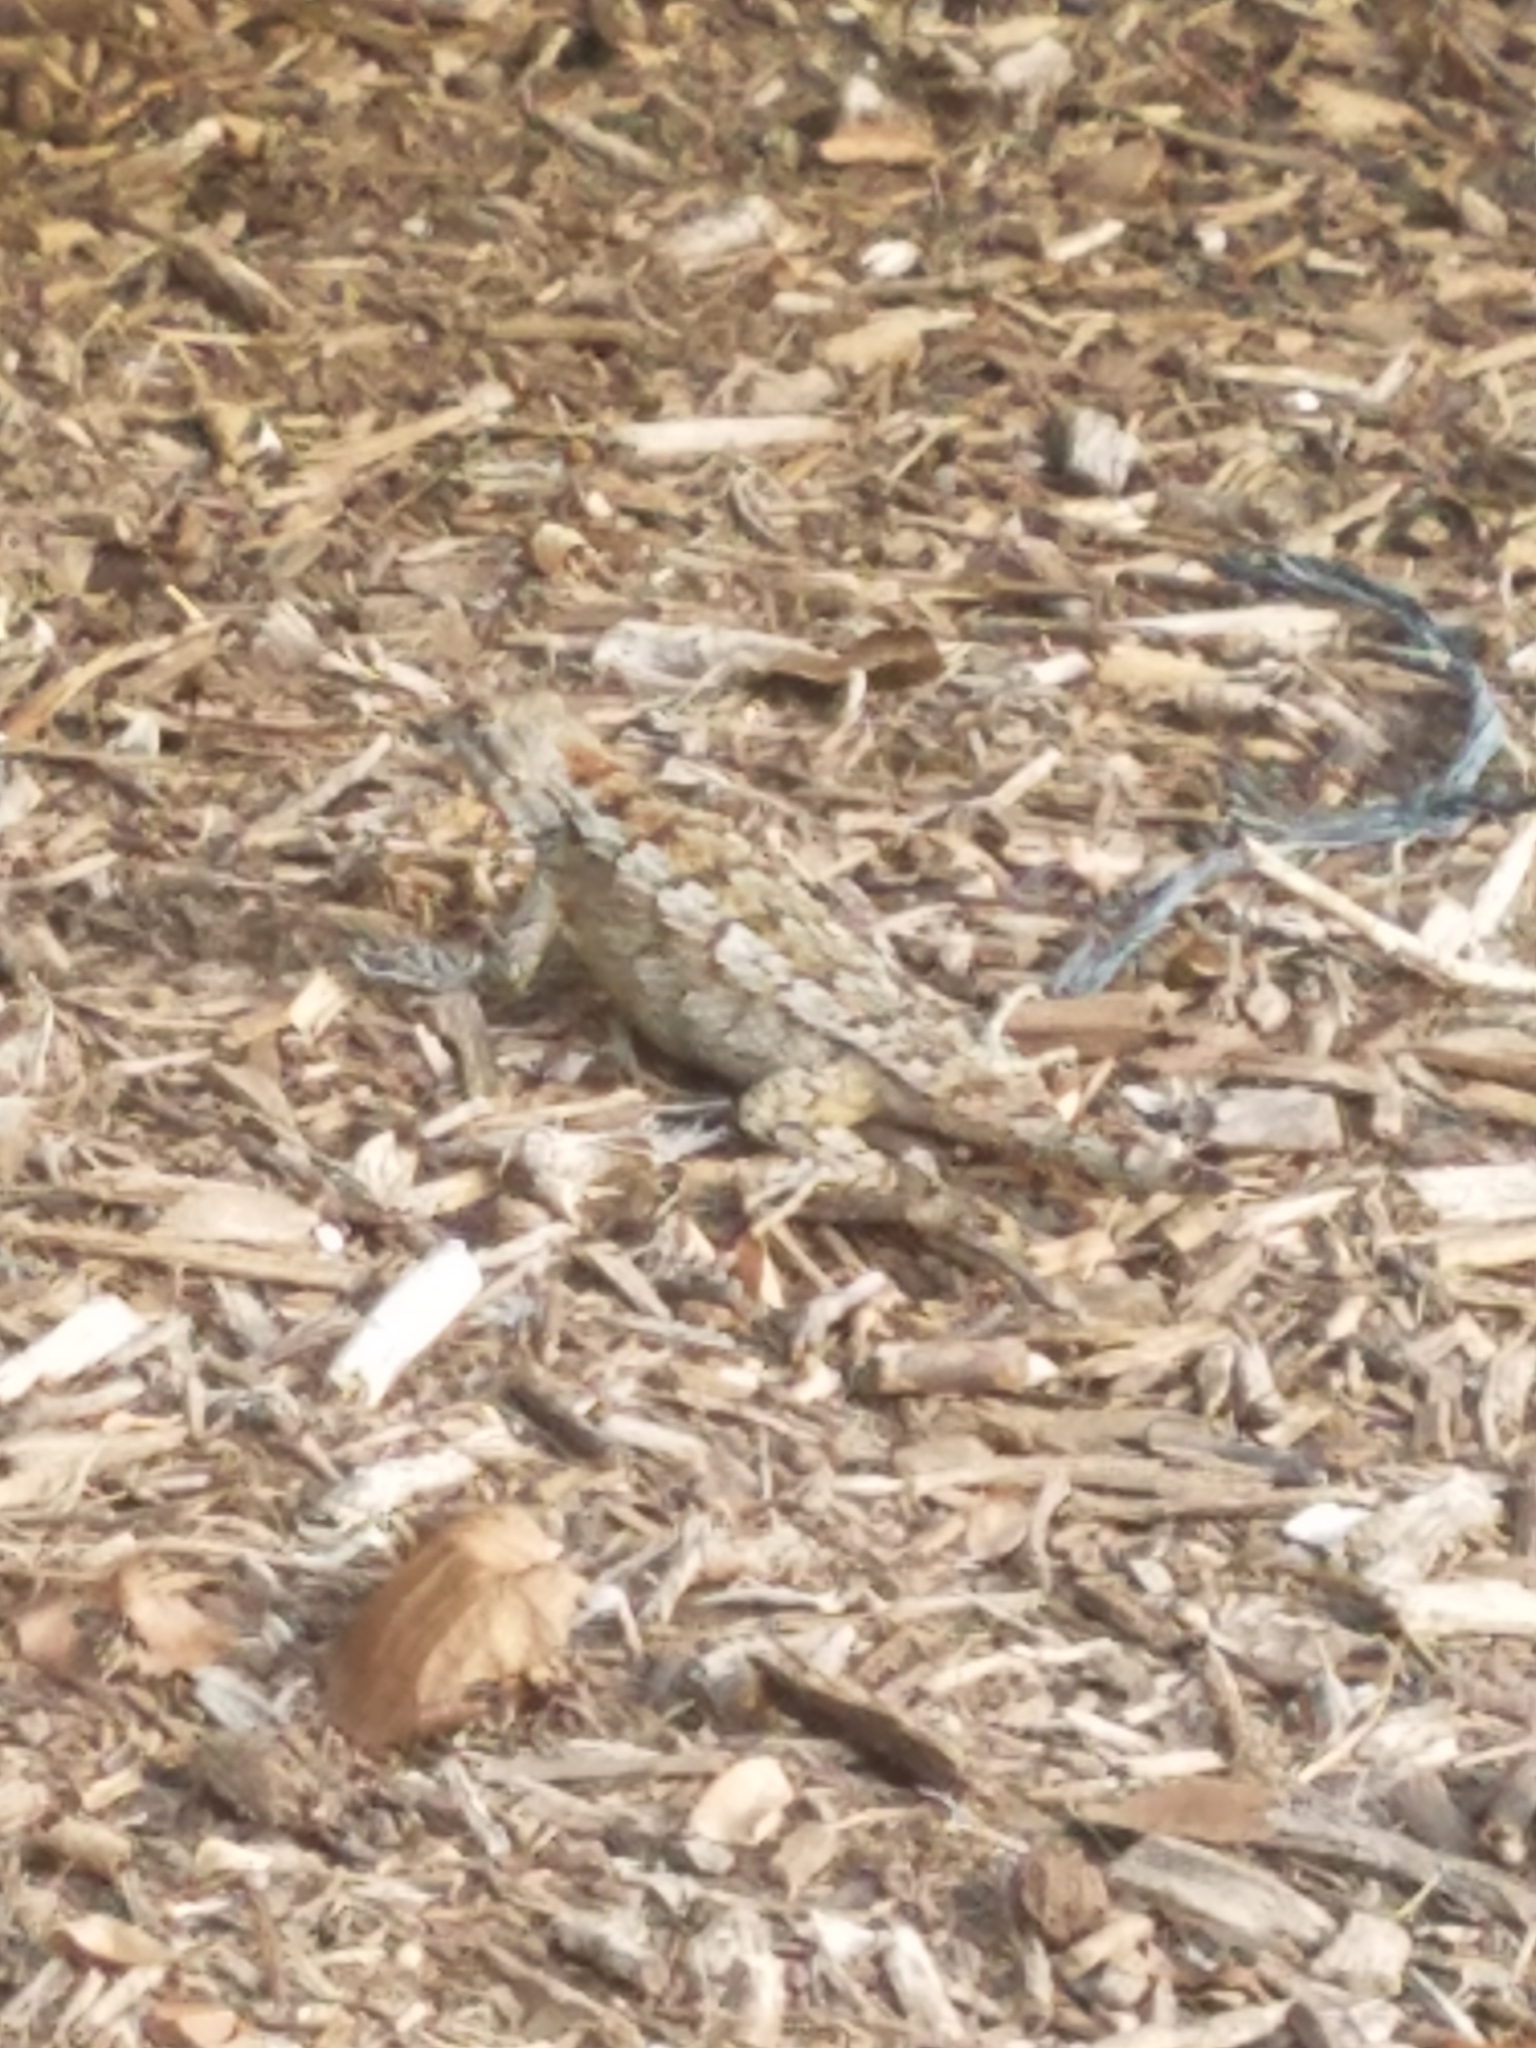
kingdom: Animalia
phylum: Chordata
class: Squamata
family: Phrynosomatidae
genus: Sceloporus
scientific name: Sceloporus olivaceus
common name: Texas spiny lizard
